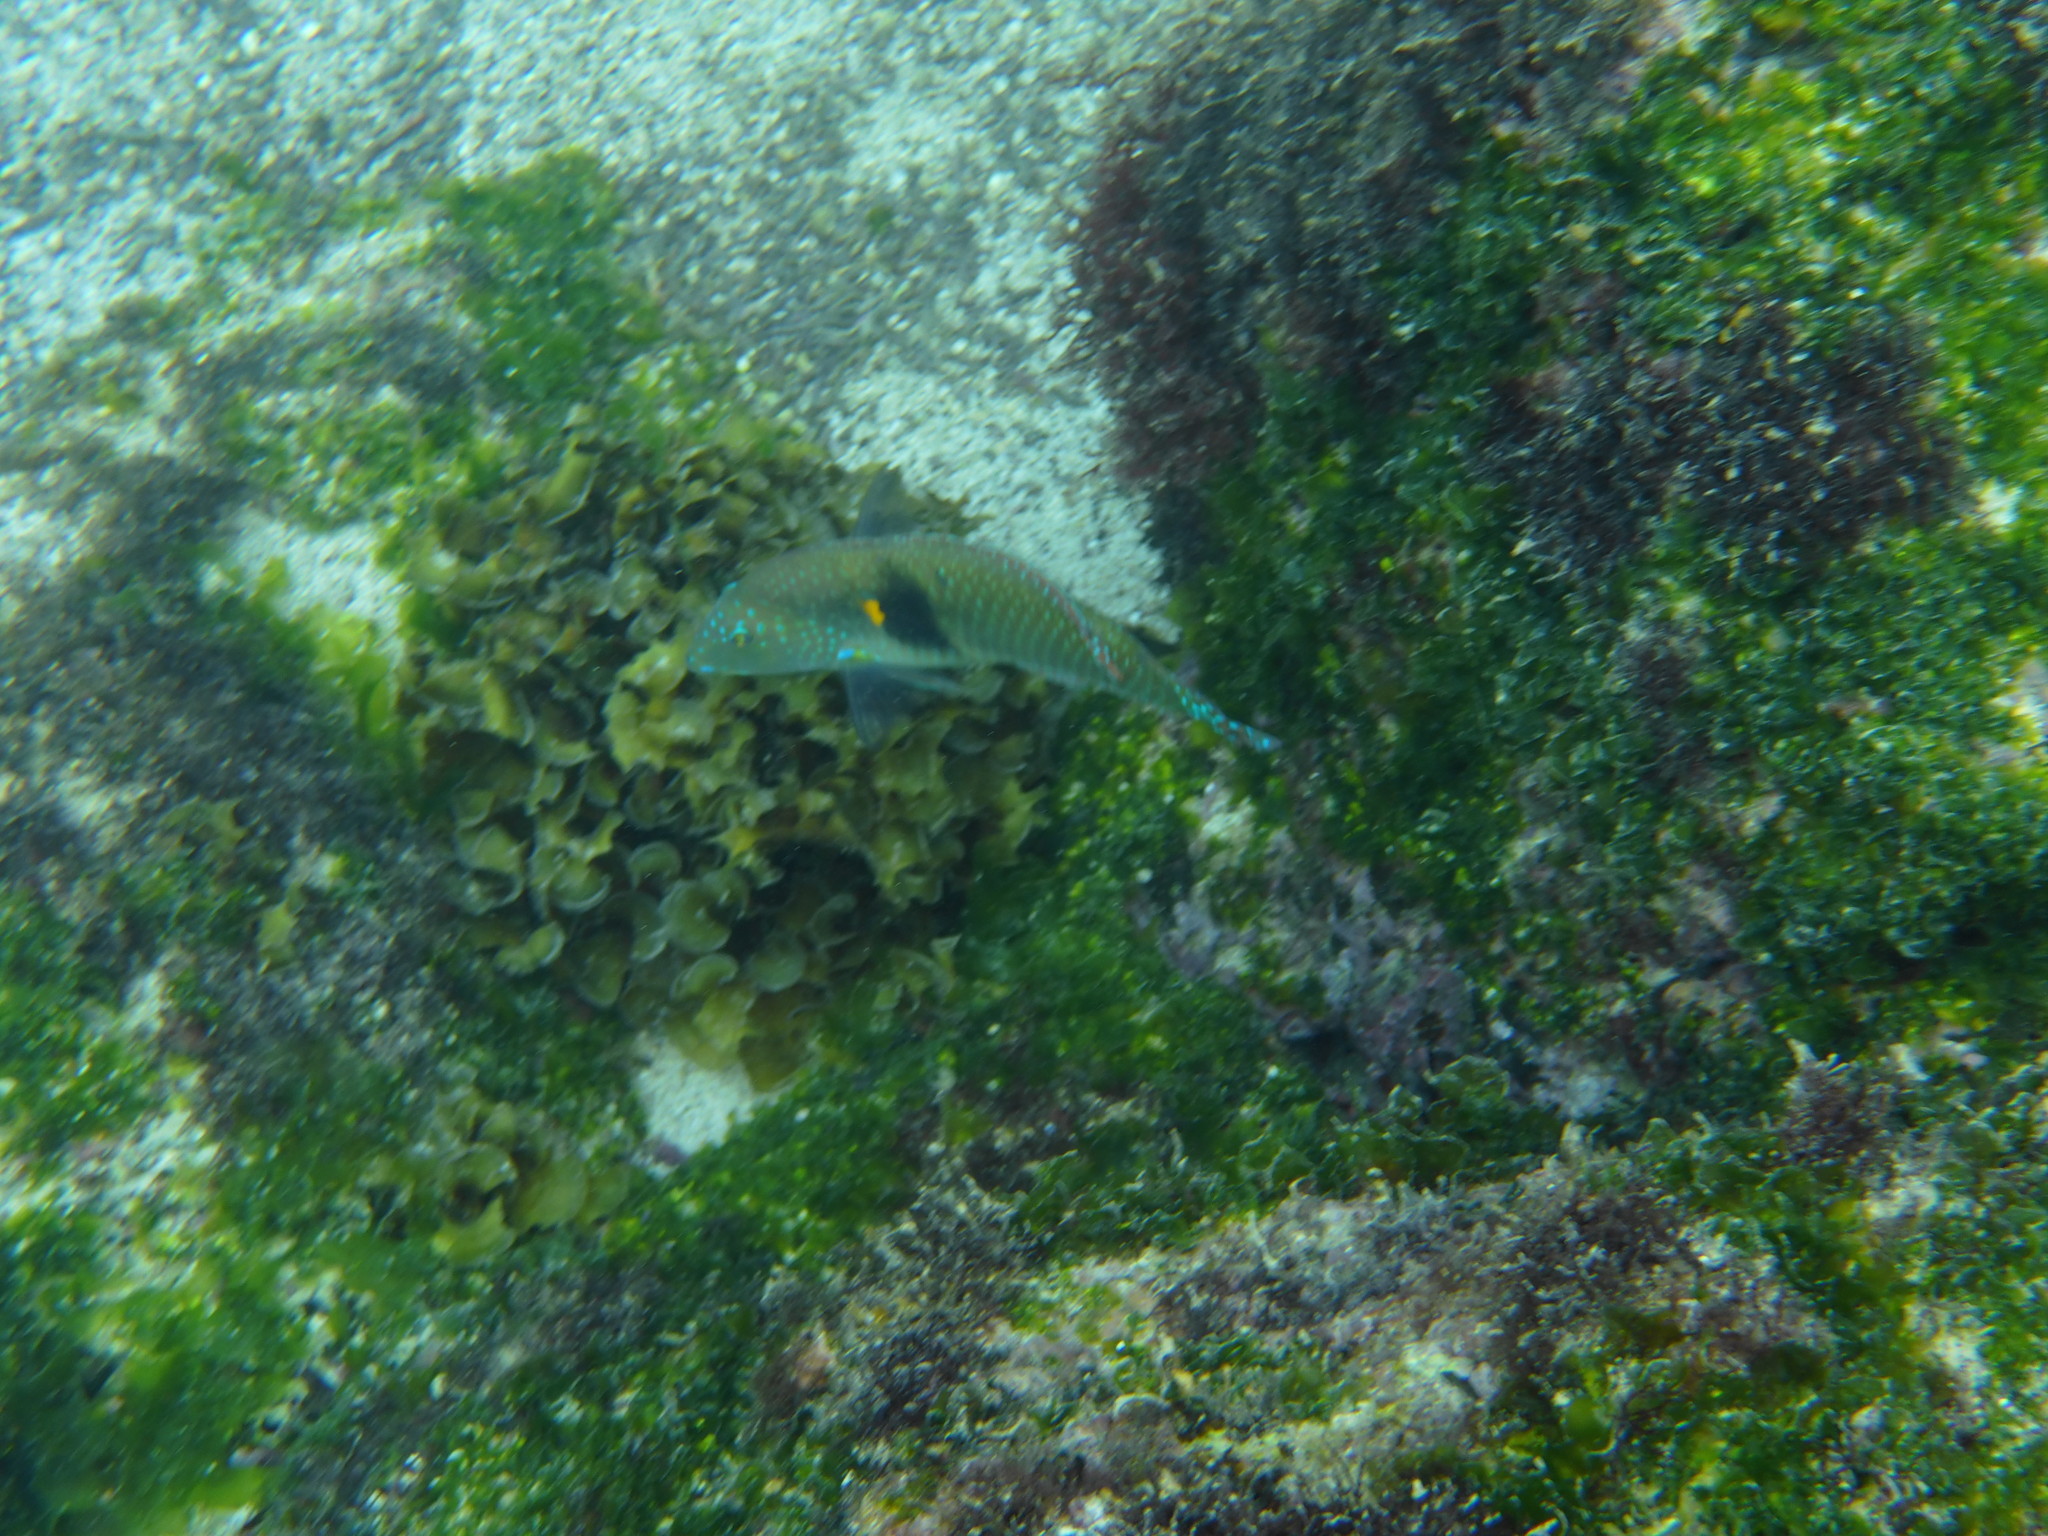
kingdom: Animalia
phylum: Chordata
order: Perciformes
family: Labridae
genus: Halichoeres
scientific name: Halichoeres nicholsi
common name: Spinster wrasse
